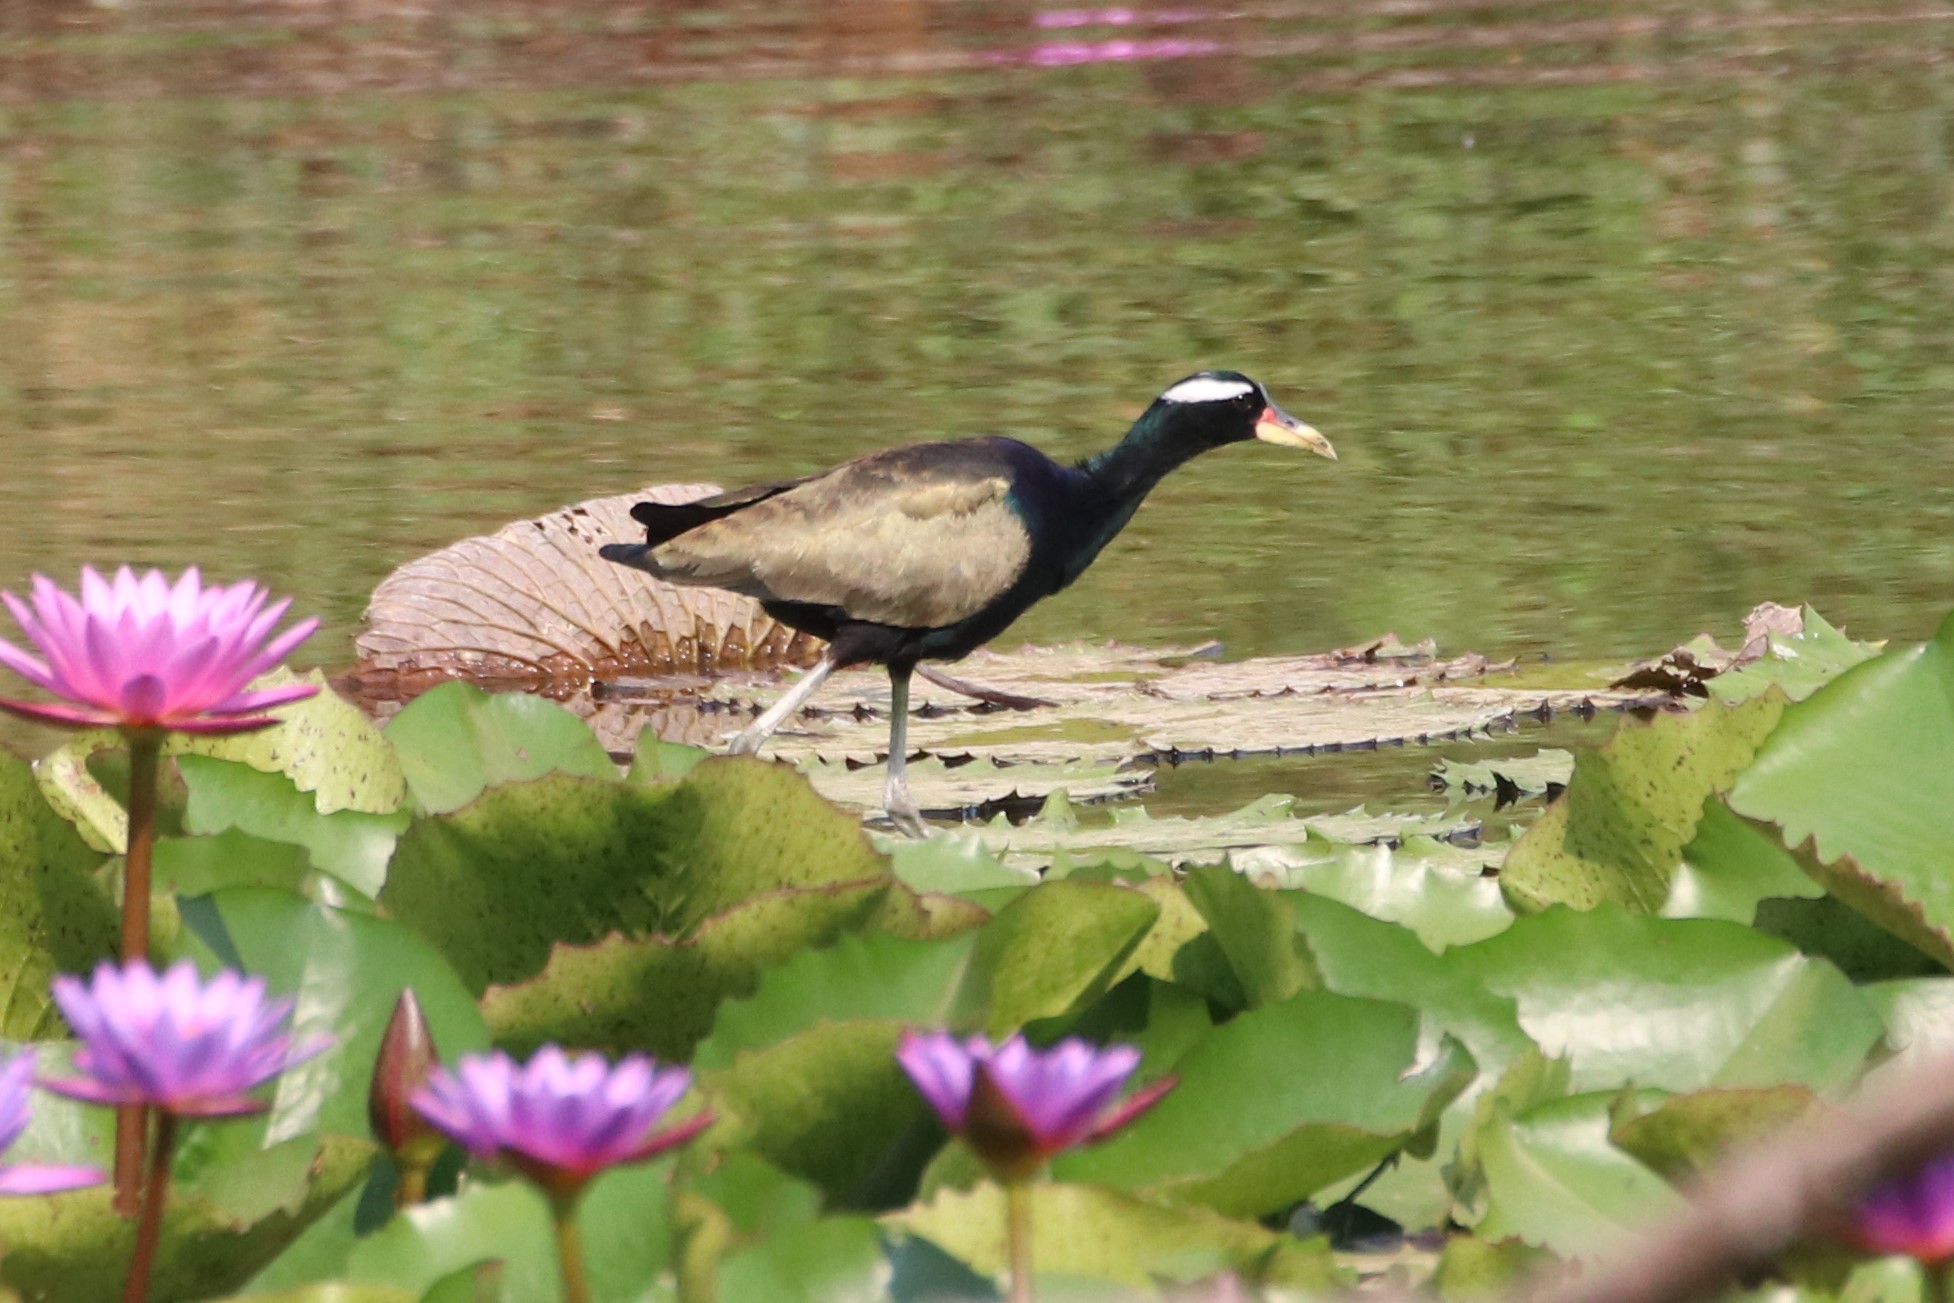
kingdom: Animalia
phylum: Chordata
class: Aves
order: Charadriiformes
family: Jacanidae
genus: Metopidius
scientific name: Metopidius indicus
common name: Bronze-winged jacana
